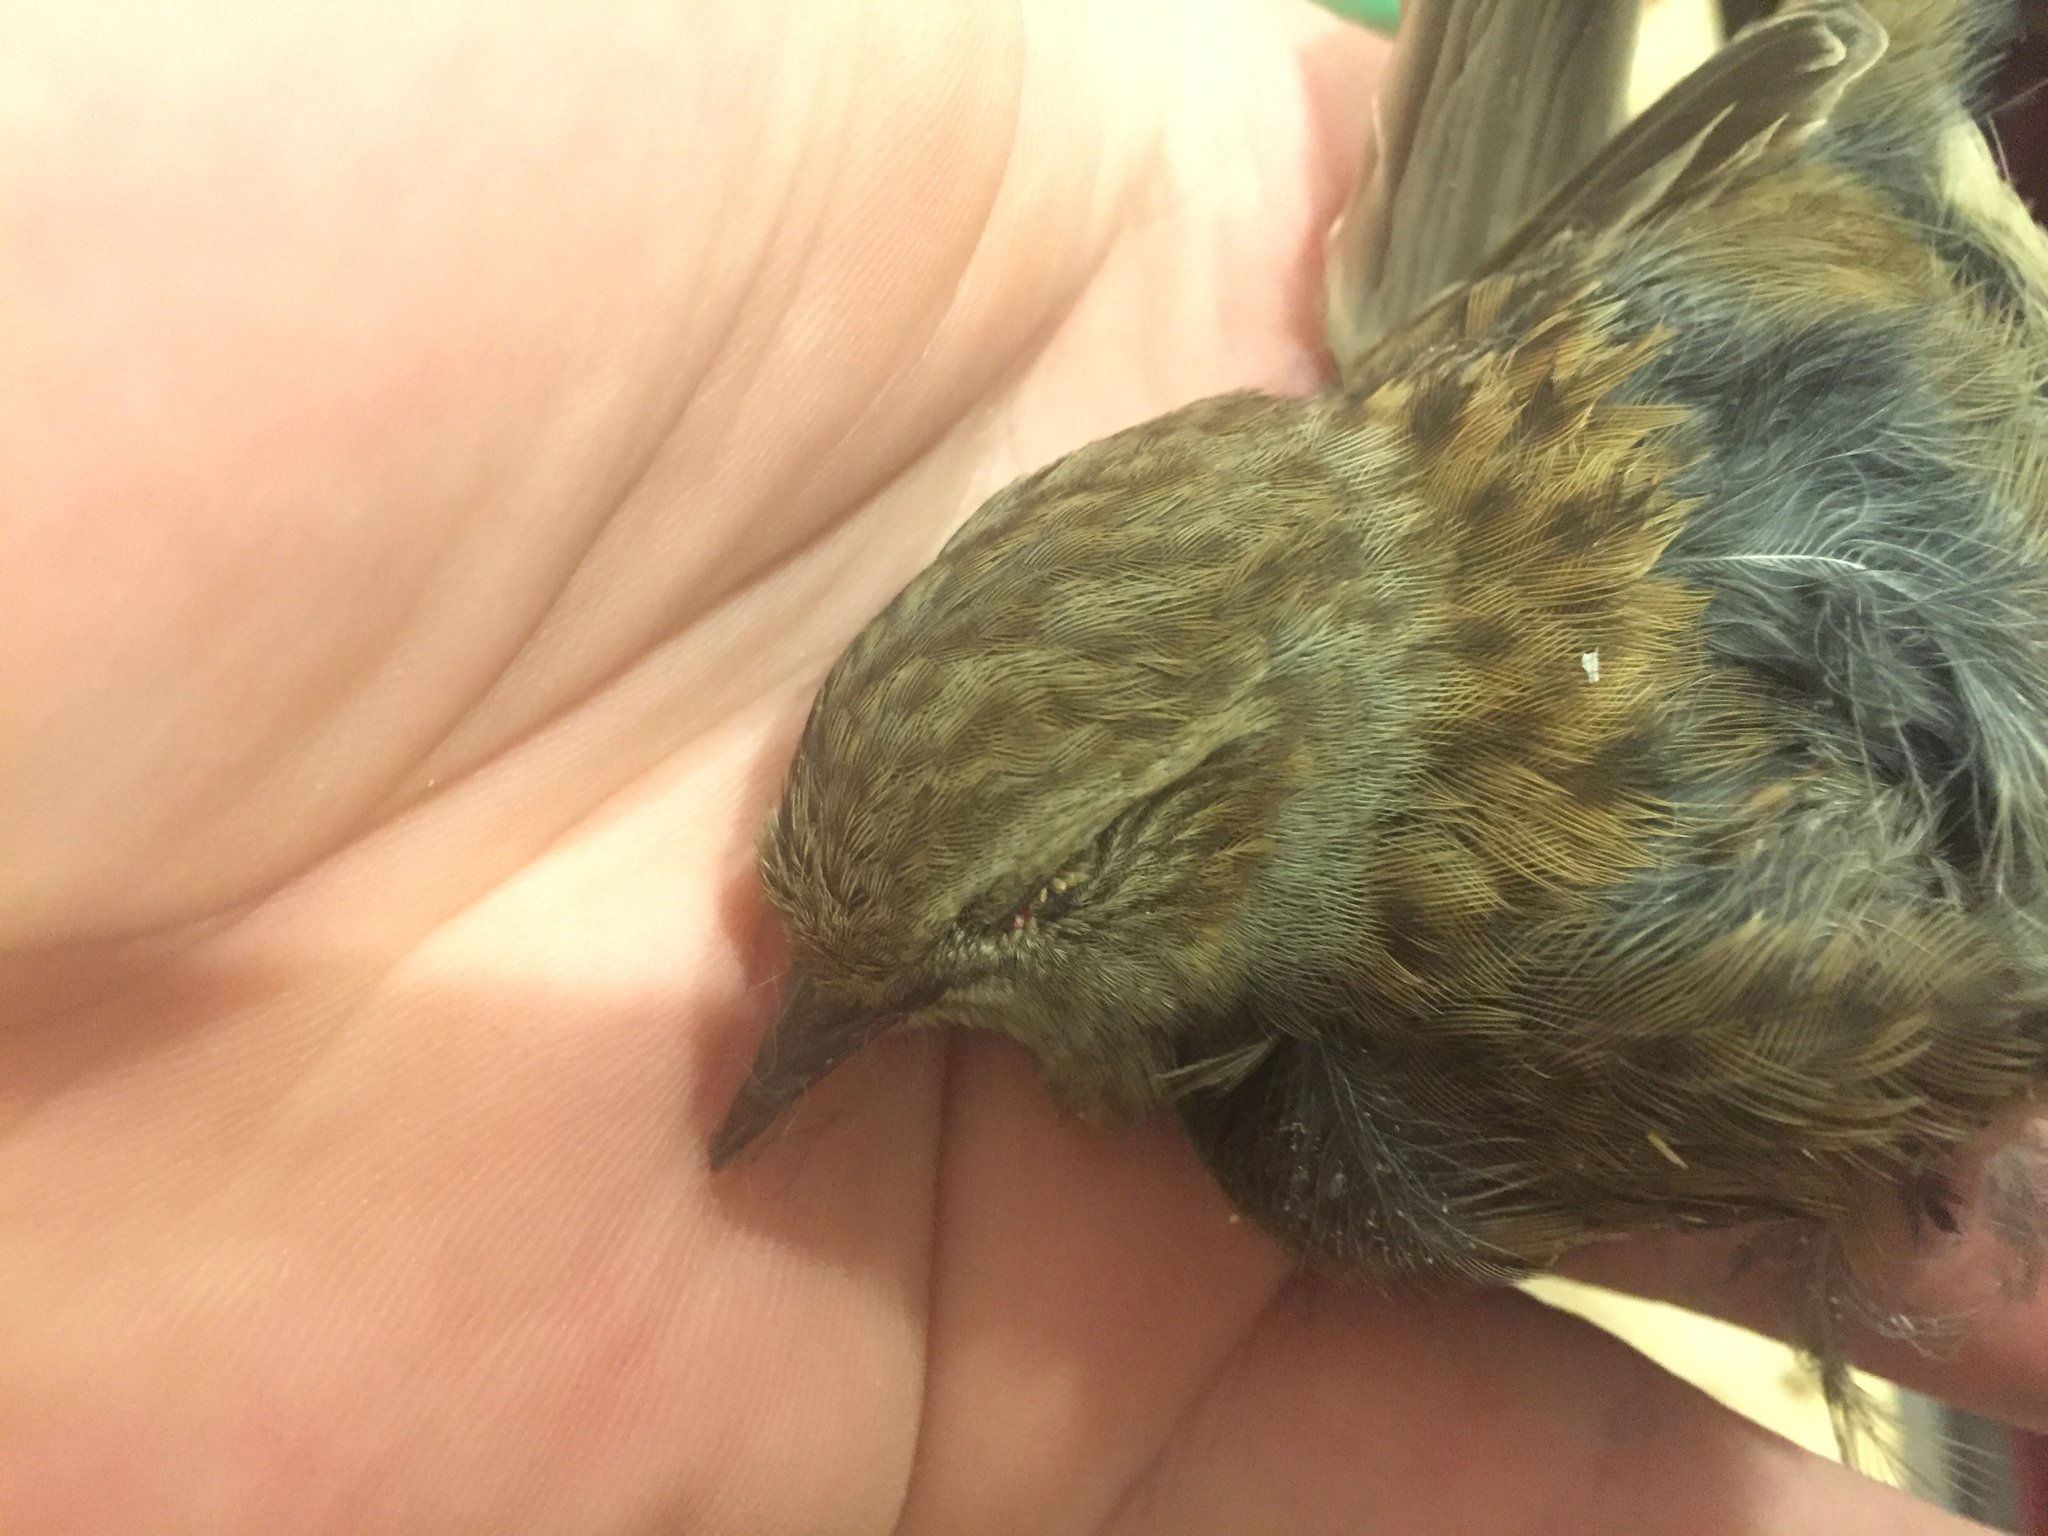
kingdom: Animalia
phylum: Chordata
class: Aves
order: Passeriformes
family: Prunellidae
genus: Prunella
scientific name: Prunella modularis
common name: Dunnock
